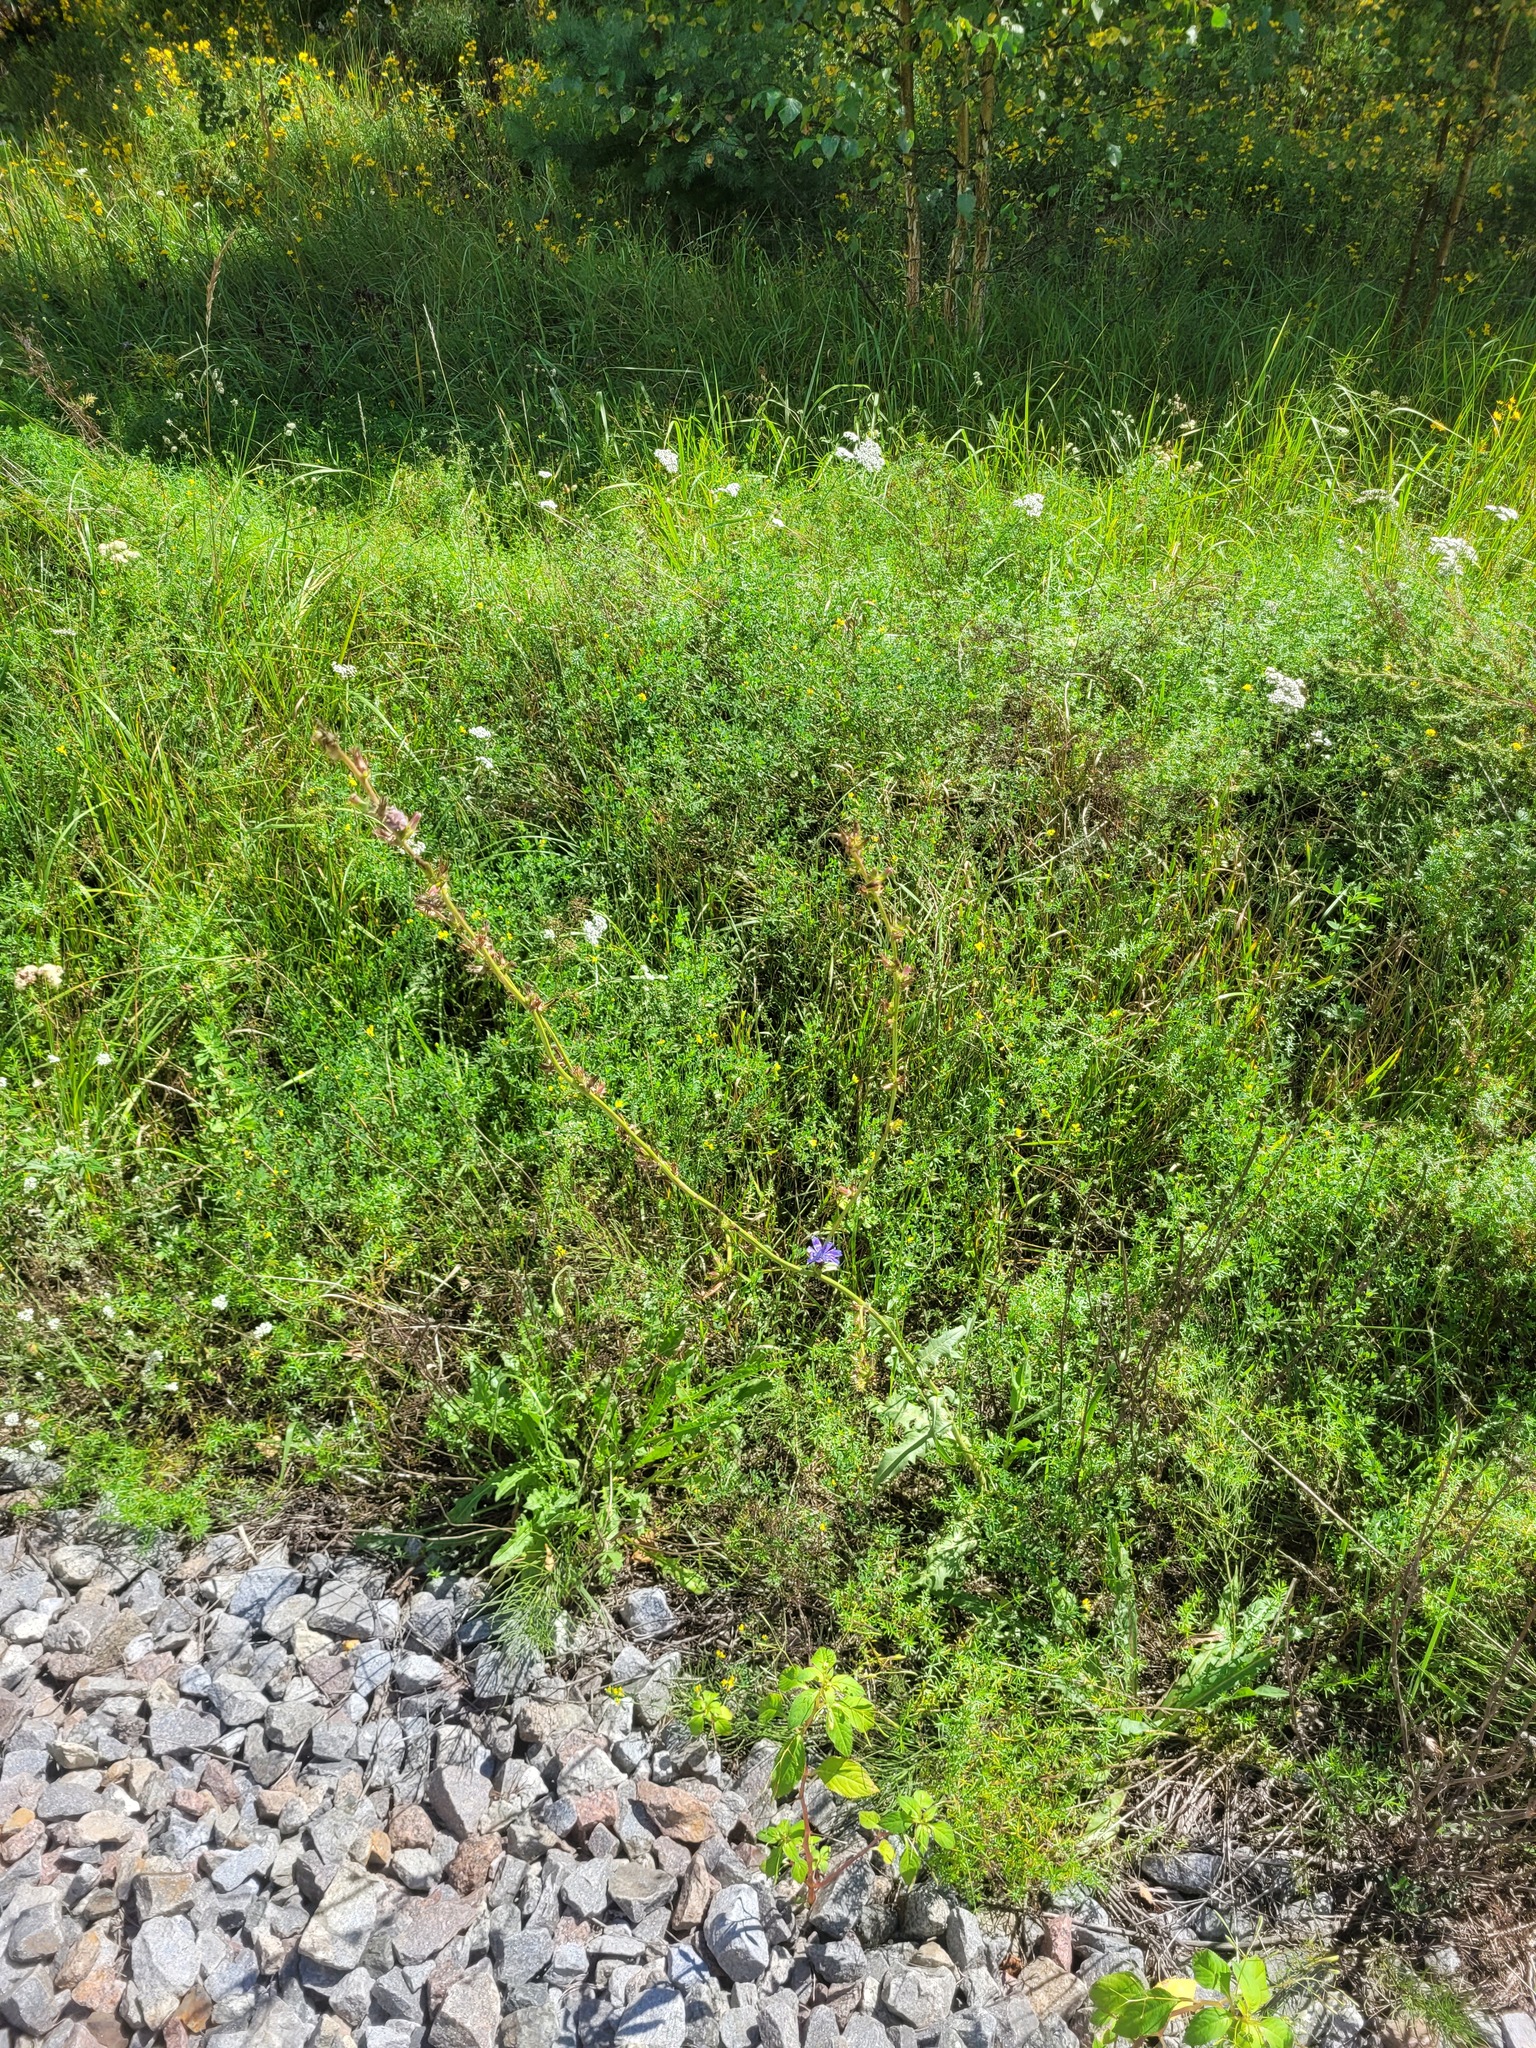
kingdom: Plantae
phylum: Tracheophyta
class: Magnoliopsida
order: Asterales
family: Asteraceae
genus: Cichorium
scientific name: Cichorium intybus
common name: Chicory
